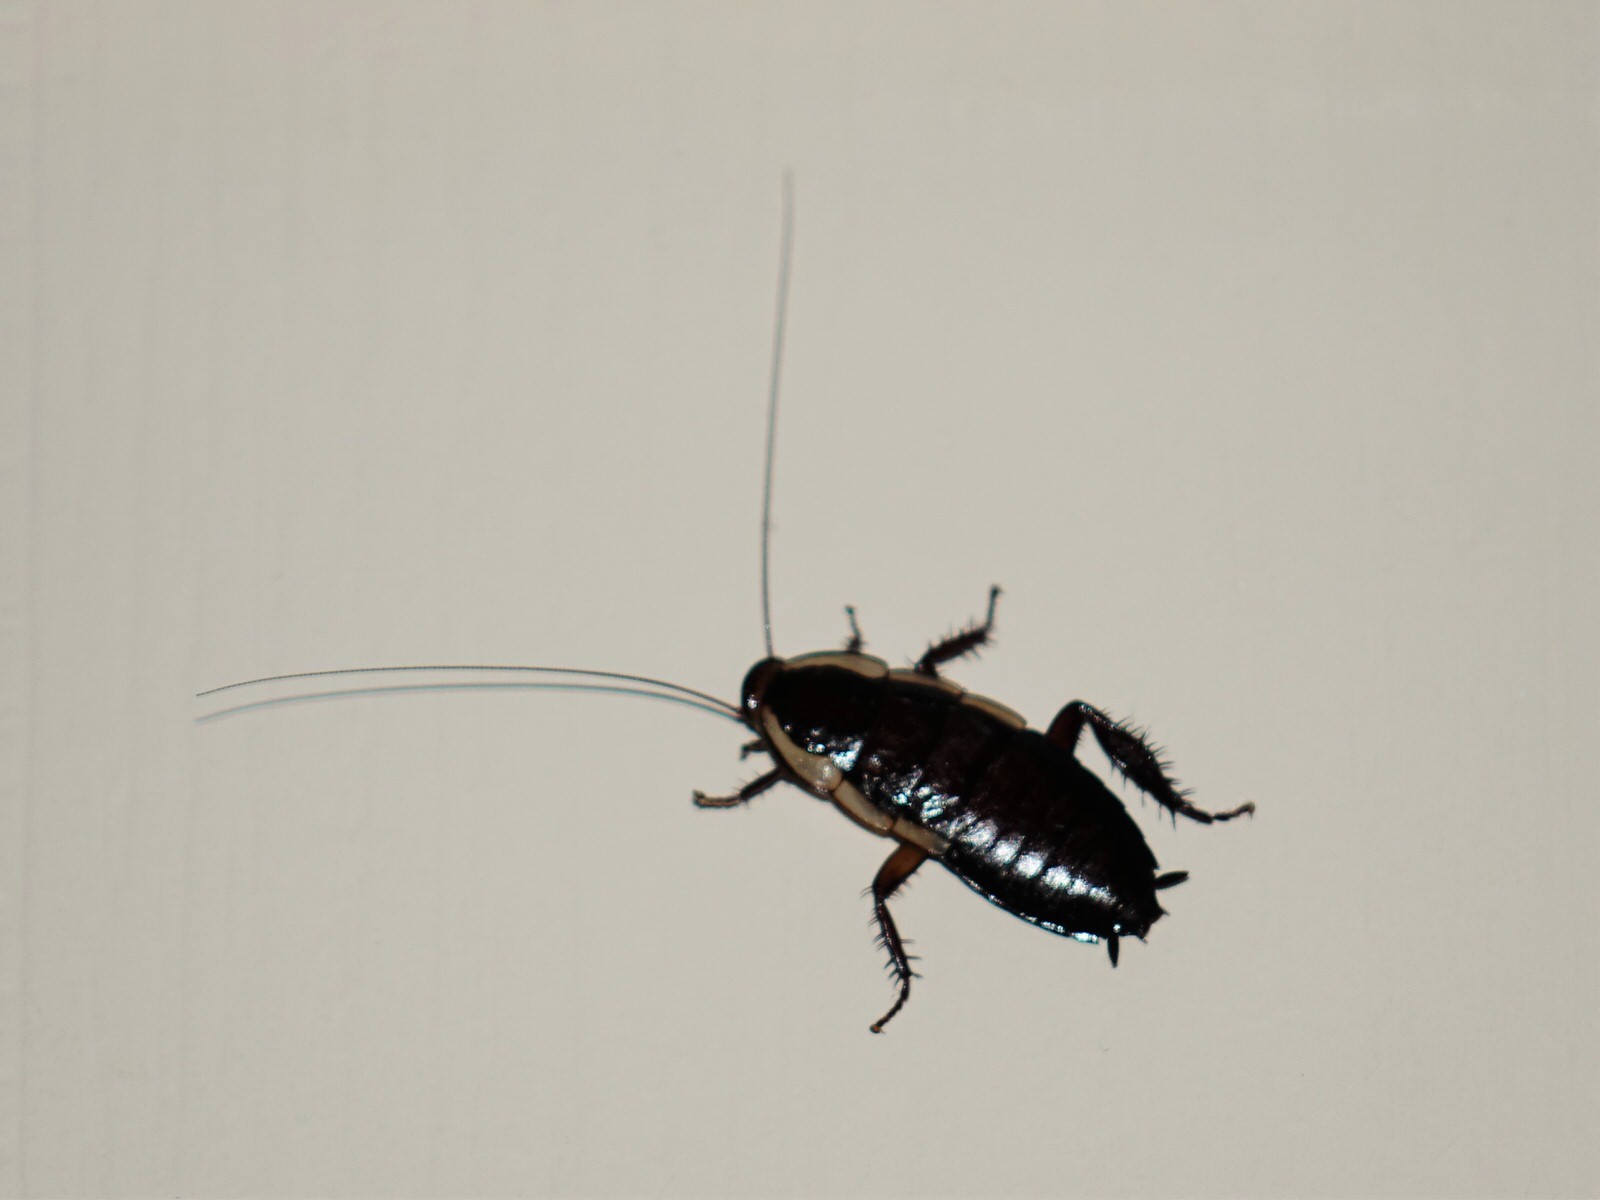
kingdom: Animalia
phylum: Arthropoda
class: Insecta
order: Blattodea
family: Blattidae
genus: Drymaplaneta
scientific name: Drymaplaneta semivitta
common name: Gisborne cockroach
